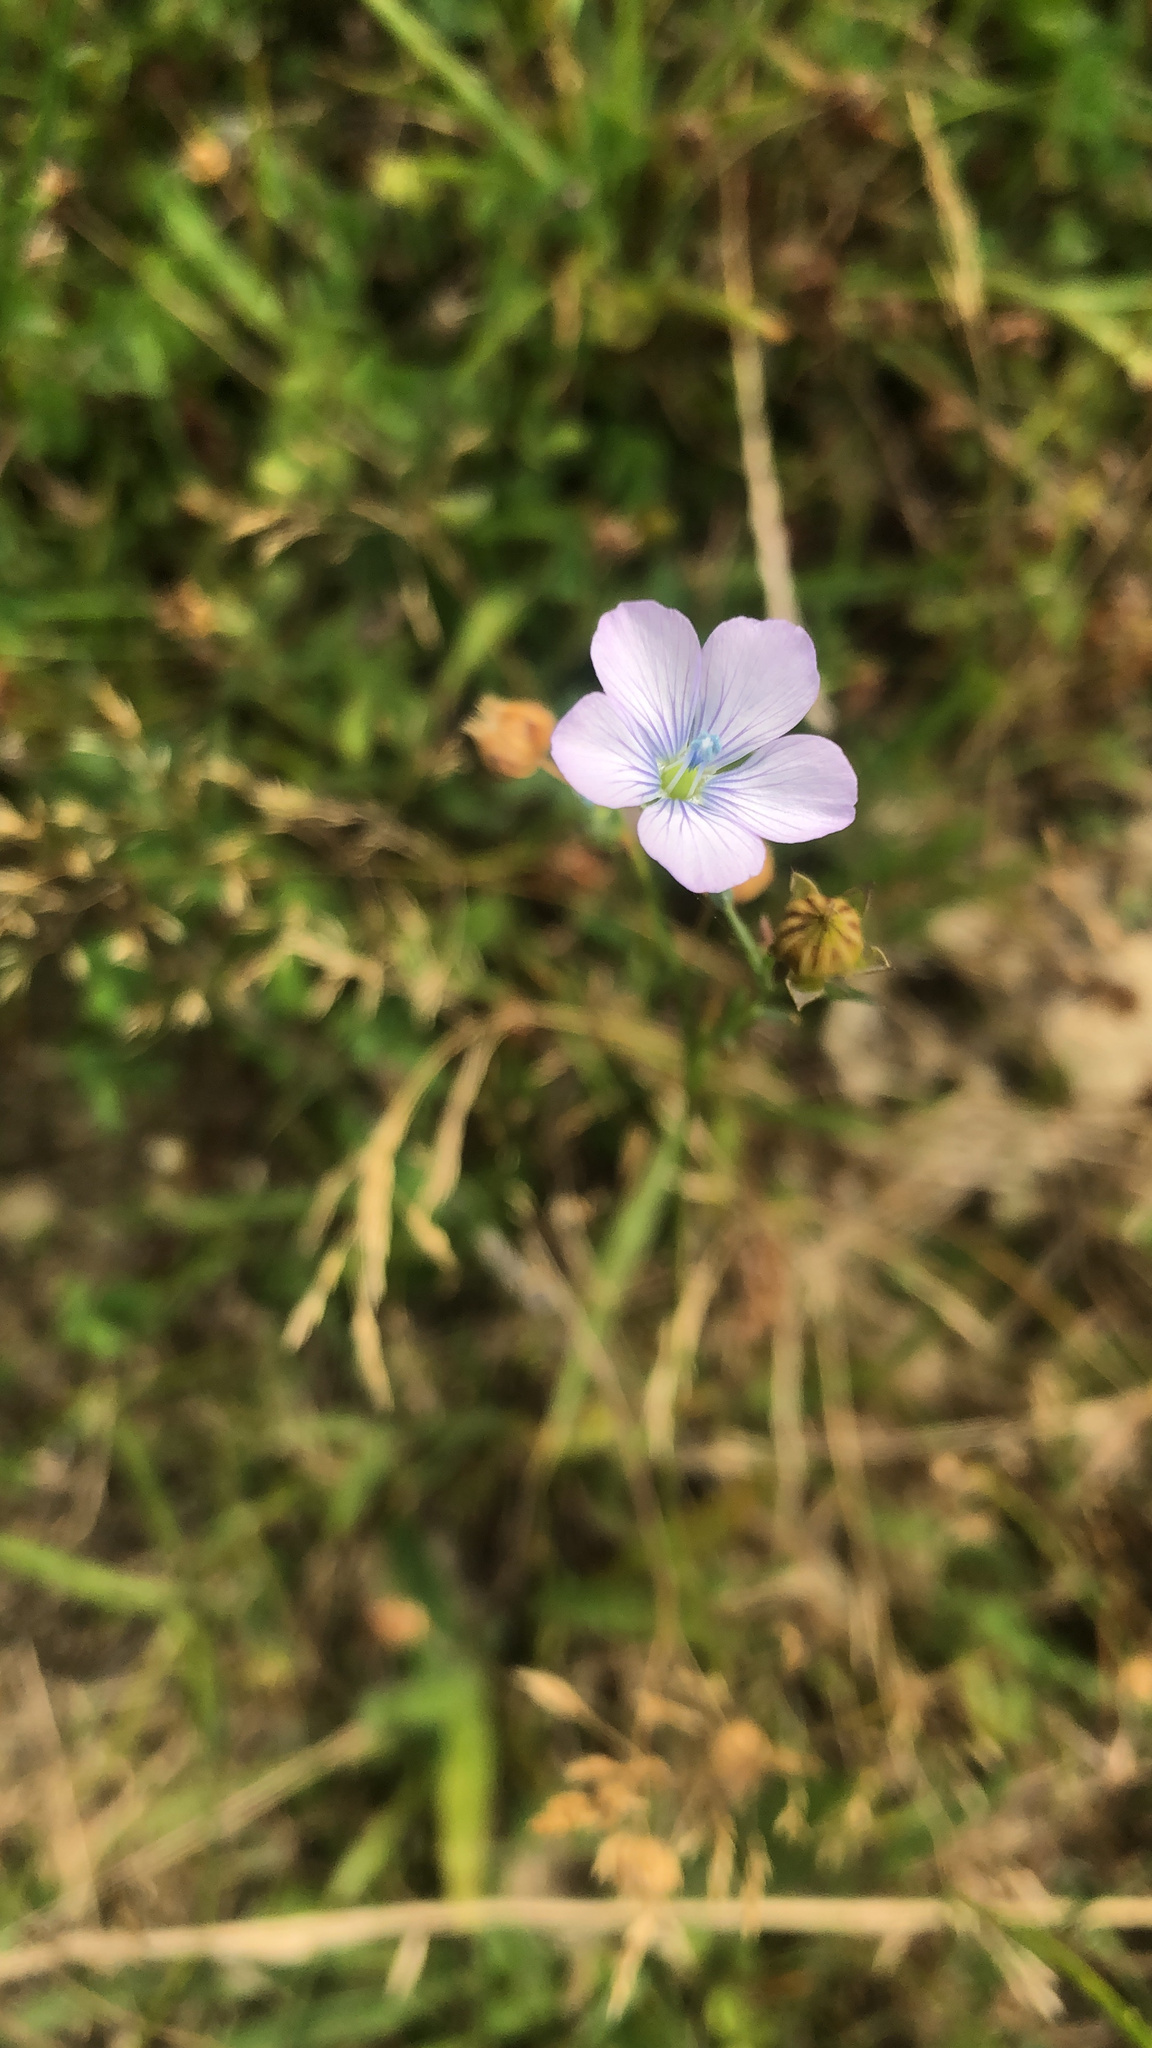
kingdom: Plantae
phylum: Tracheophyta
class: Magnoliopsida
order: Malpighiales
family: Linaceae
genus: Linum
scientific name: Linum bienne
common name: Pale flax
